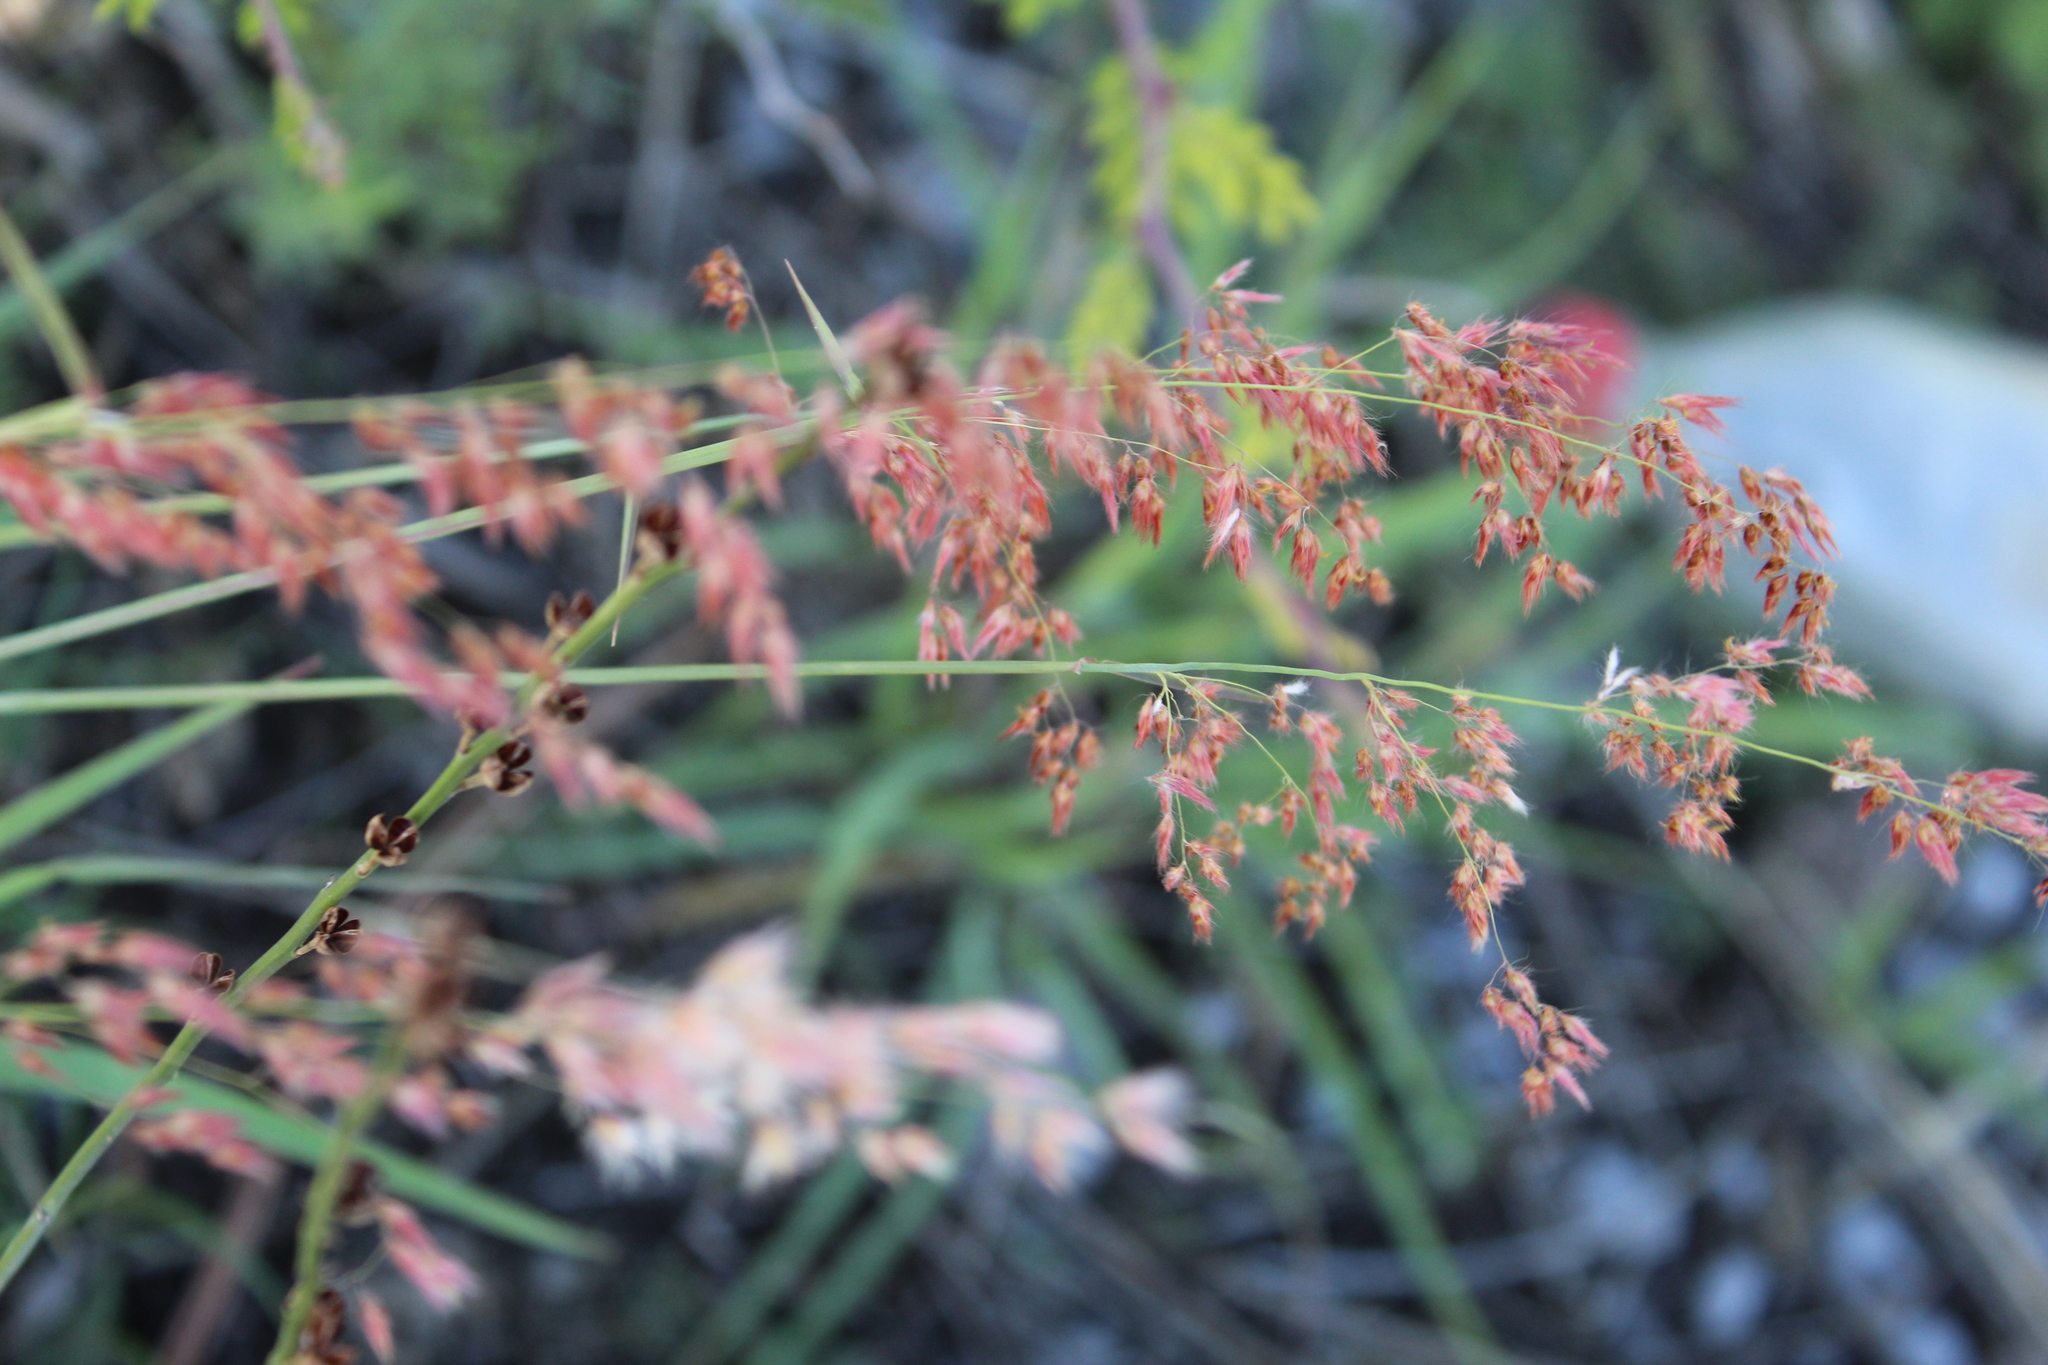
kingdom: Plantae
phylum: Tracheophyta
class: Liliopsida
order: Poales
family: Poaceae
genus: Melinis
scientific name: Melinis repens
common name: Rose natal grass
